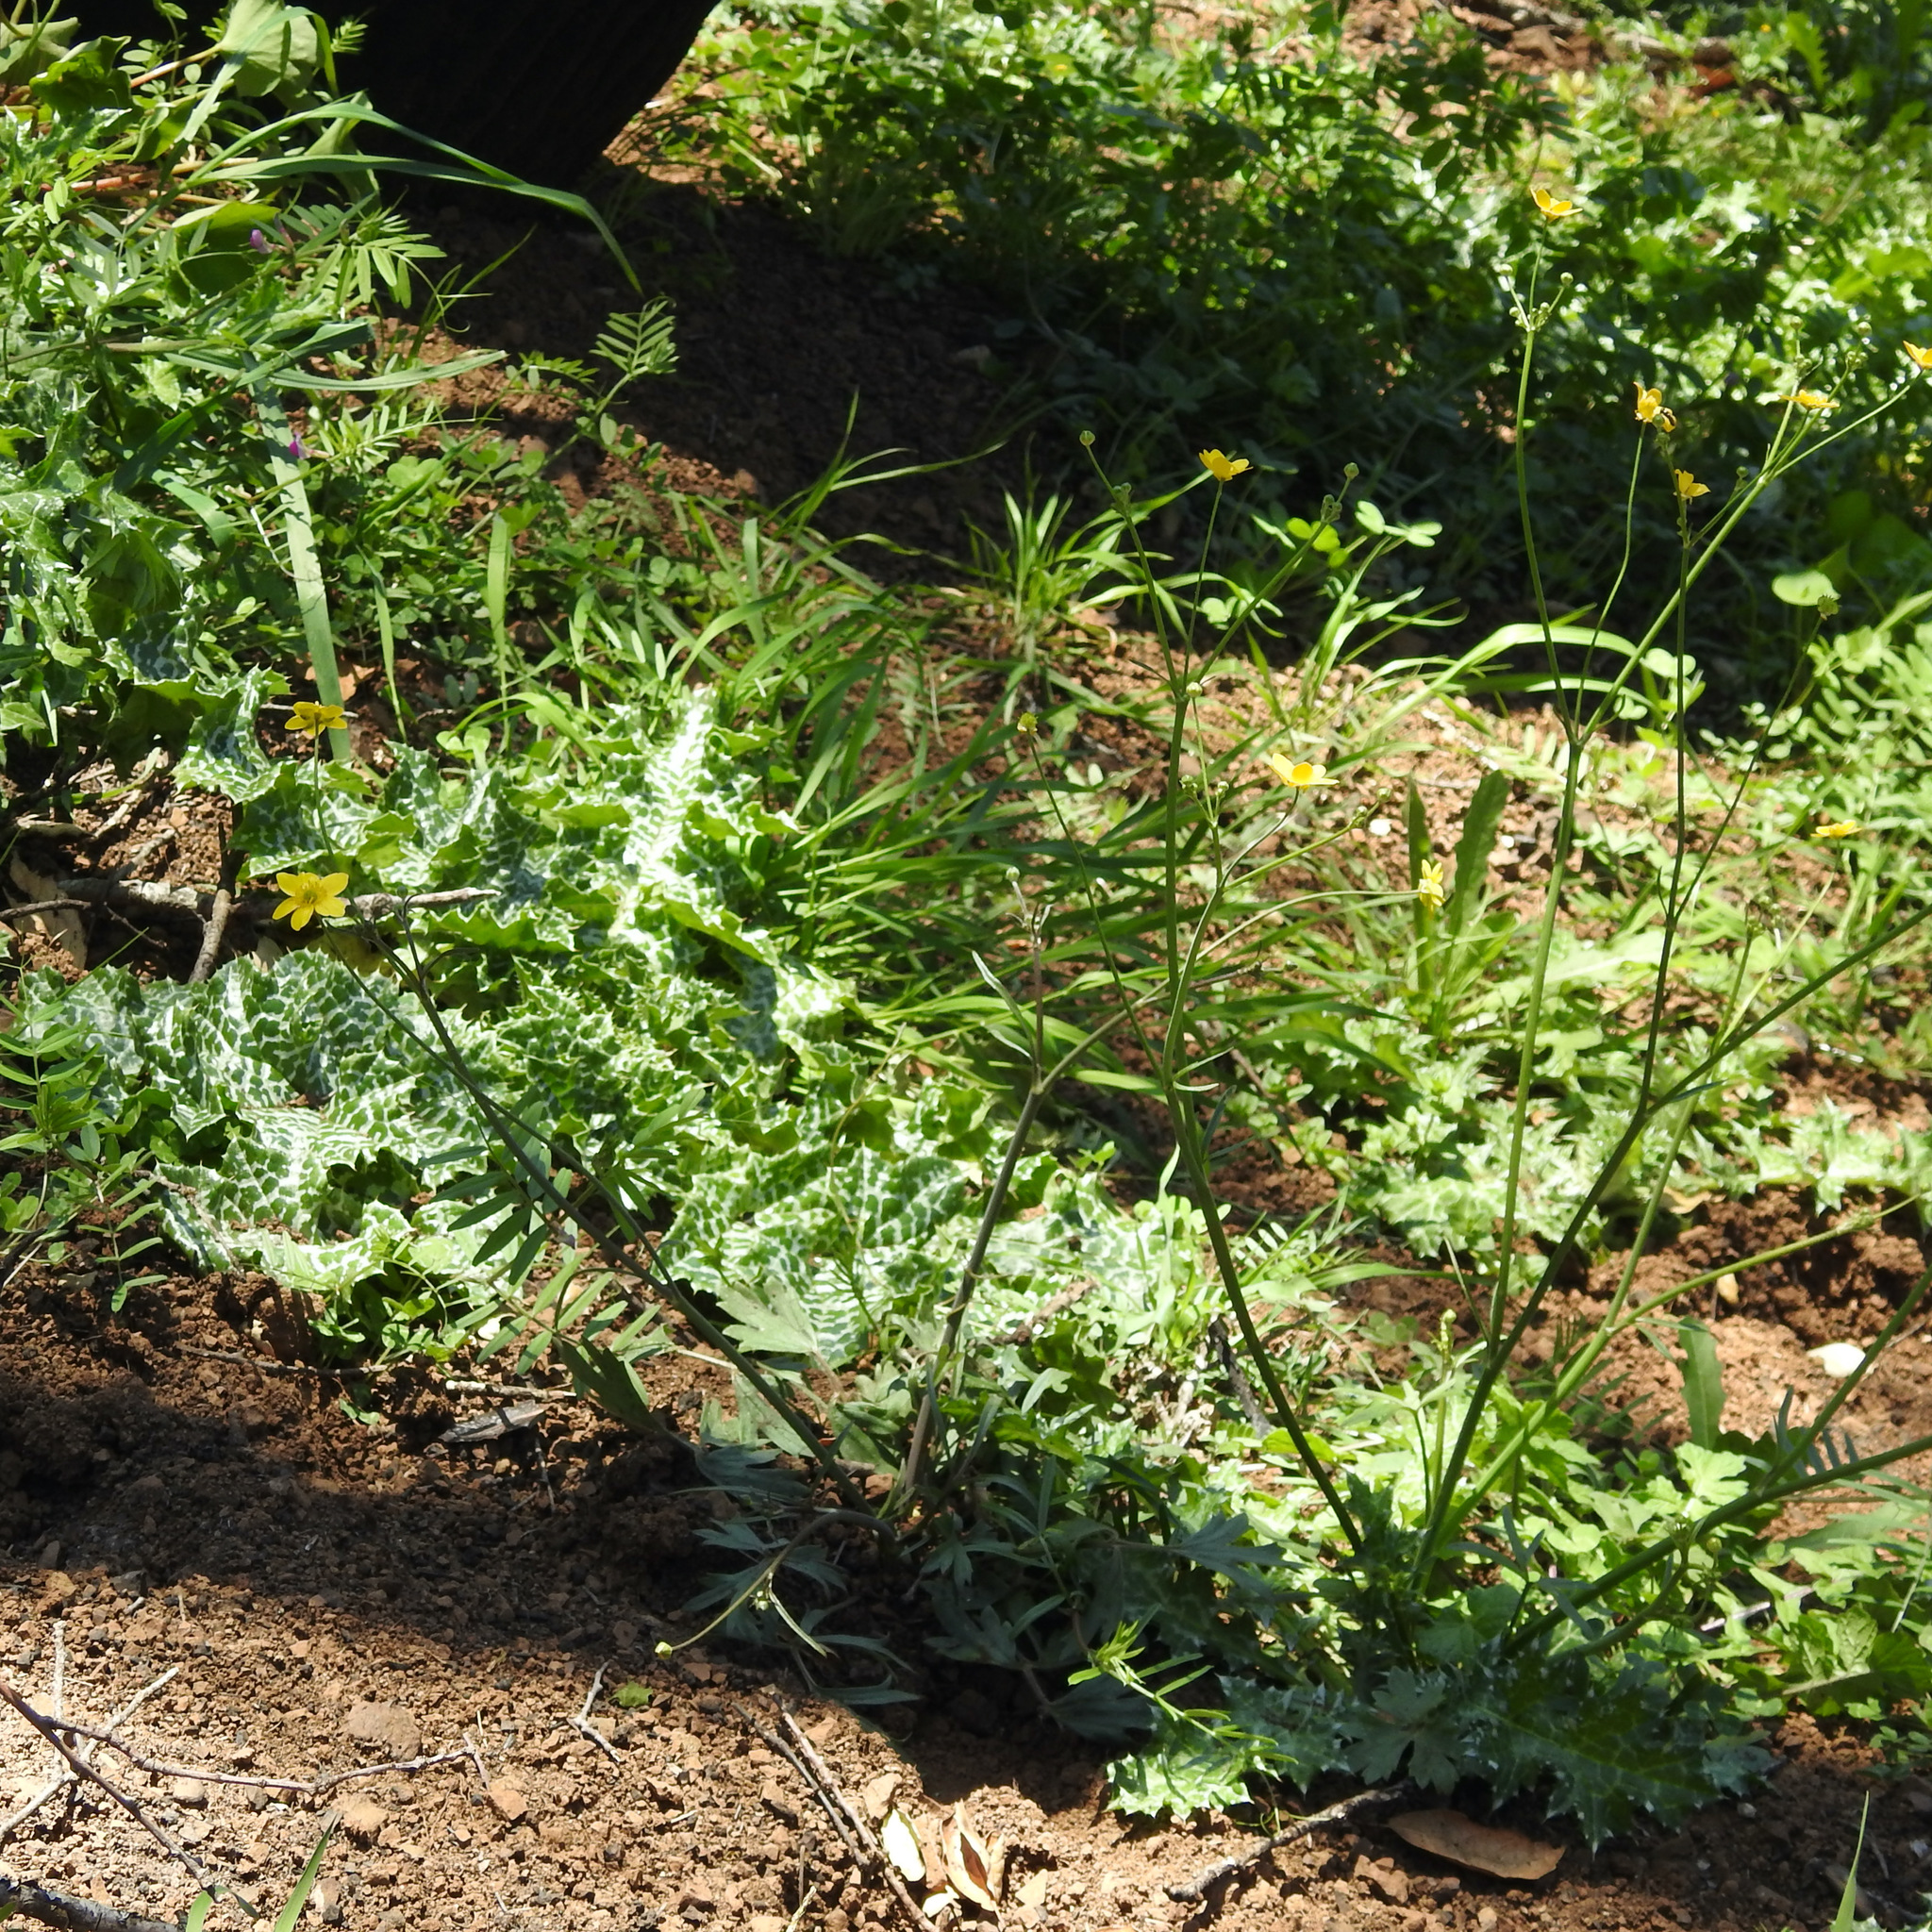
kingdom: Plantae
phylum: Tracheophyta
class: Magnoliopsida
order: Asterales
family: Asteraceae
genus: Silybum
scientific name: Silybum marianum
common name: Milk thistle
